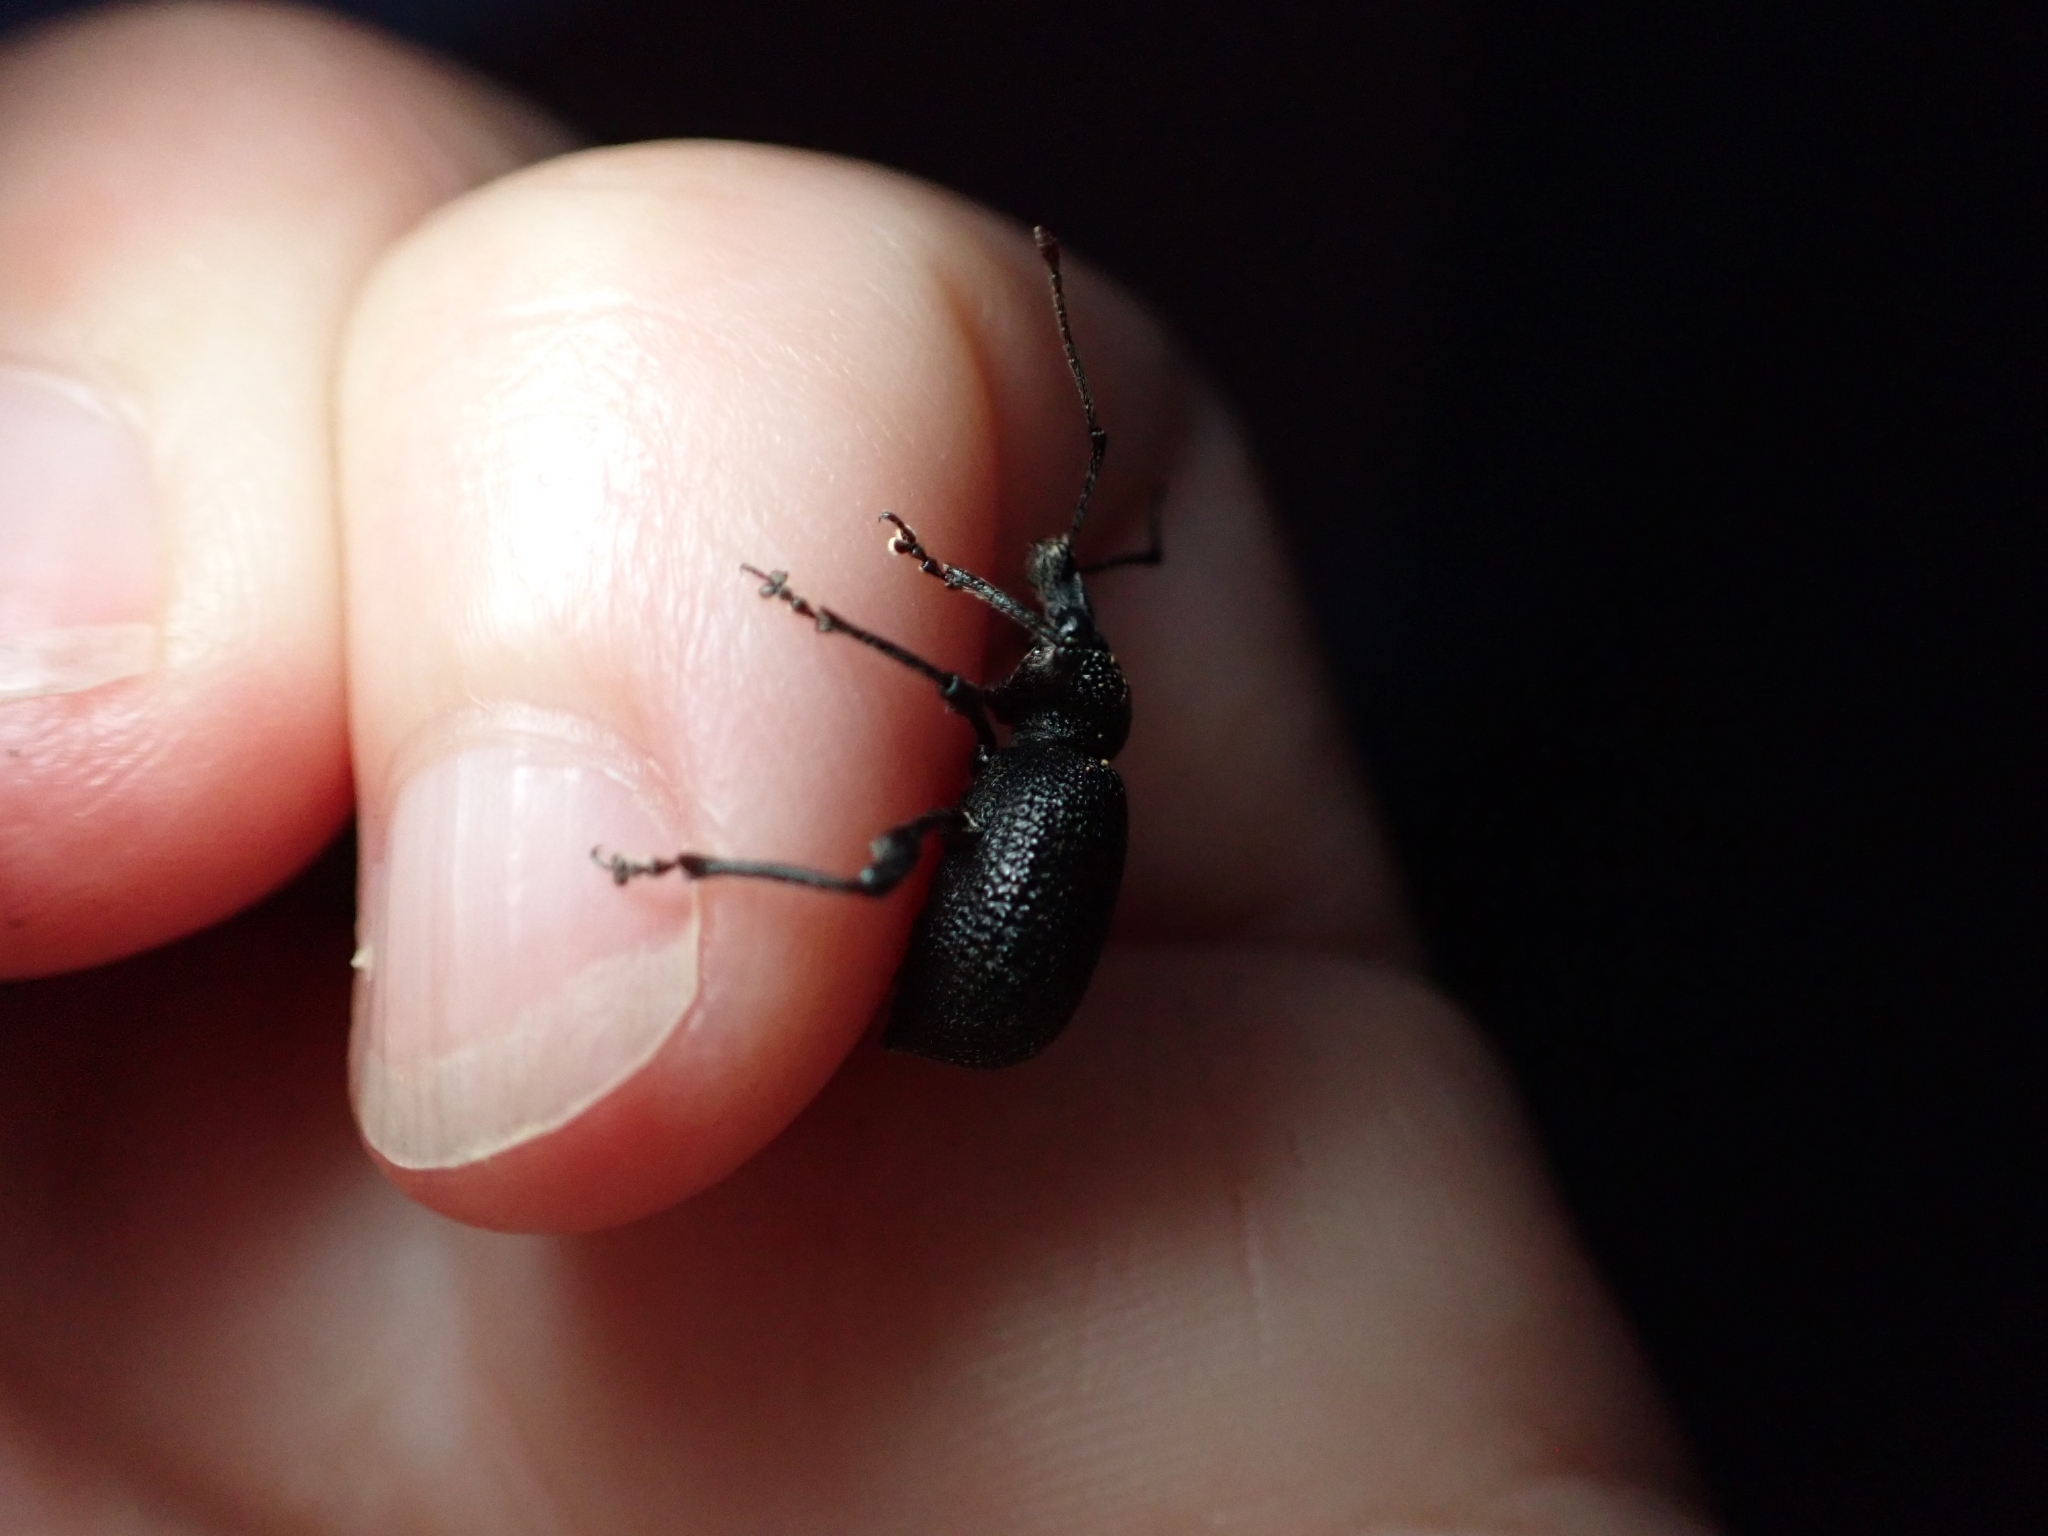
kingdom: Animalia
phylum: Arthropoda
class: Insecta
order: Coleoptera
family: Curculionidae
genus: Otiorhynchus
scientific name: Otiorhynchus armatus
